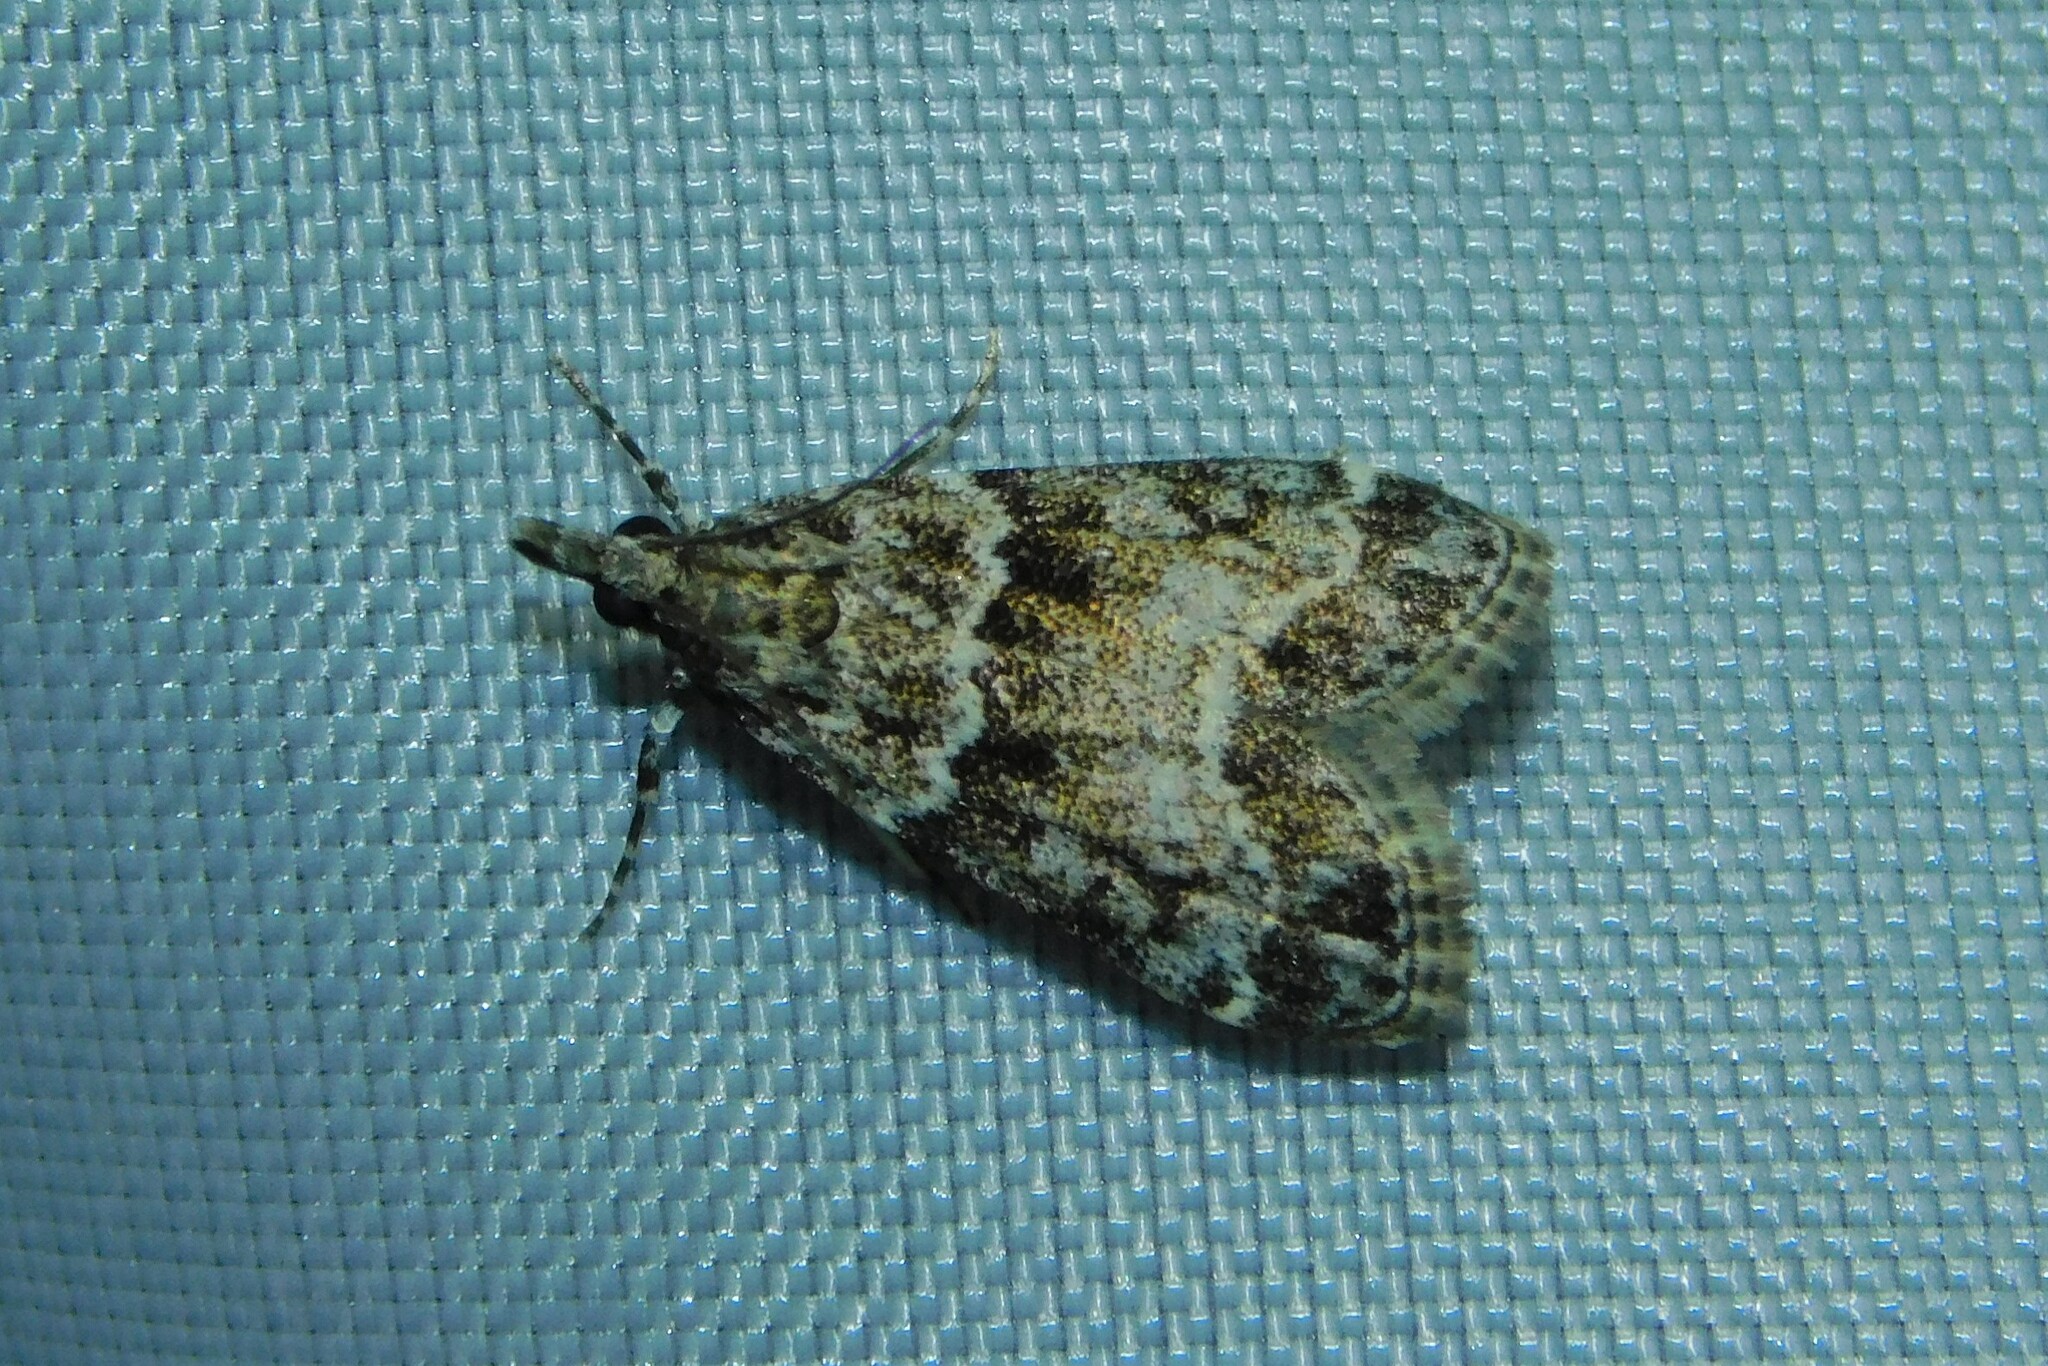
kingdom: Animalia
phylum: Arthropoda
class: Insecta
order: Lepidoptera
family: Crambidae
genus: Eudonia
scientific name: Eudonia mercurella
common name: Small grey
